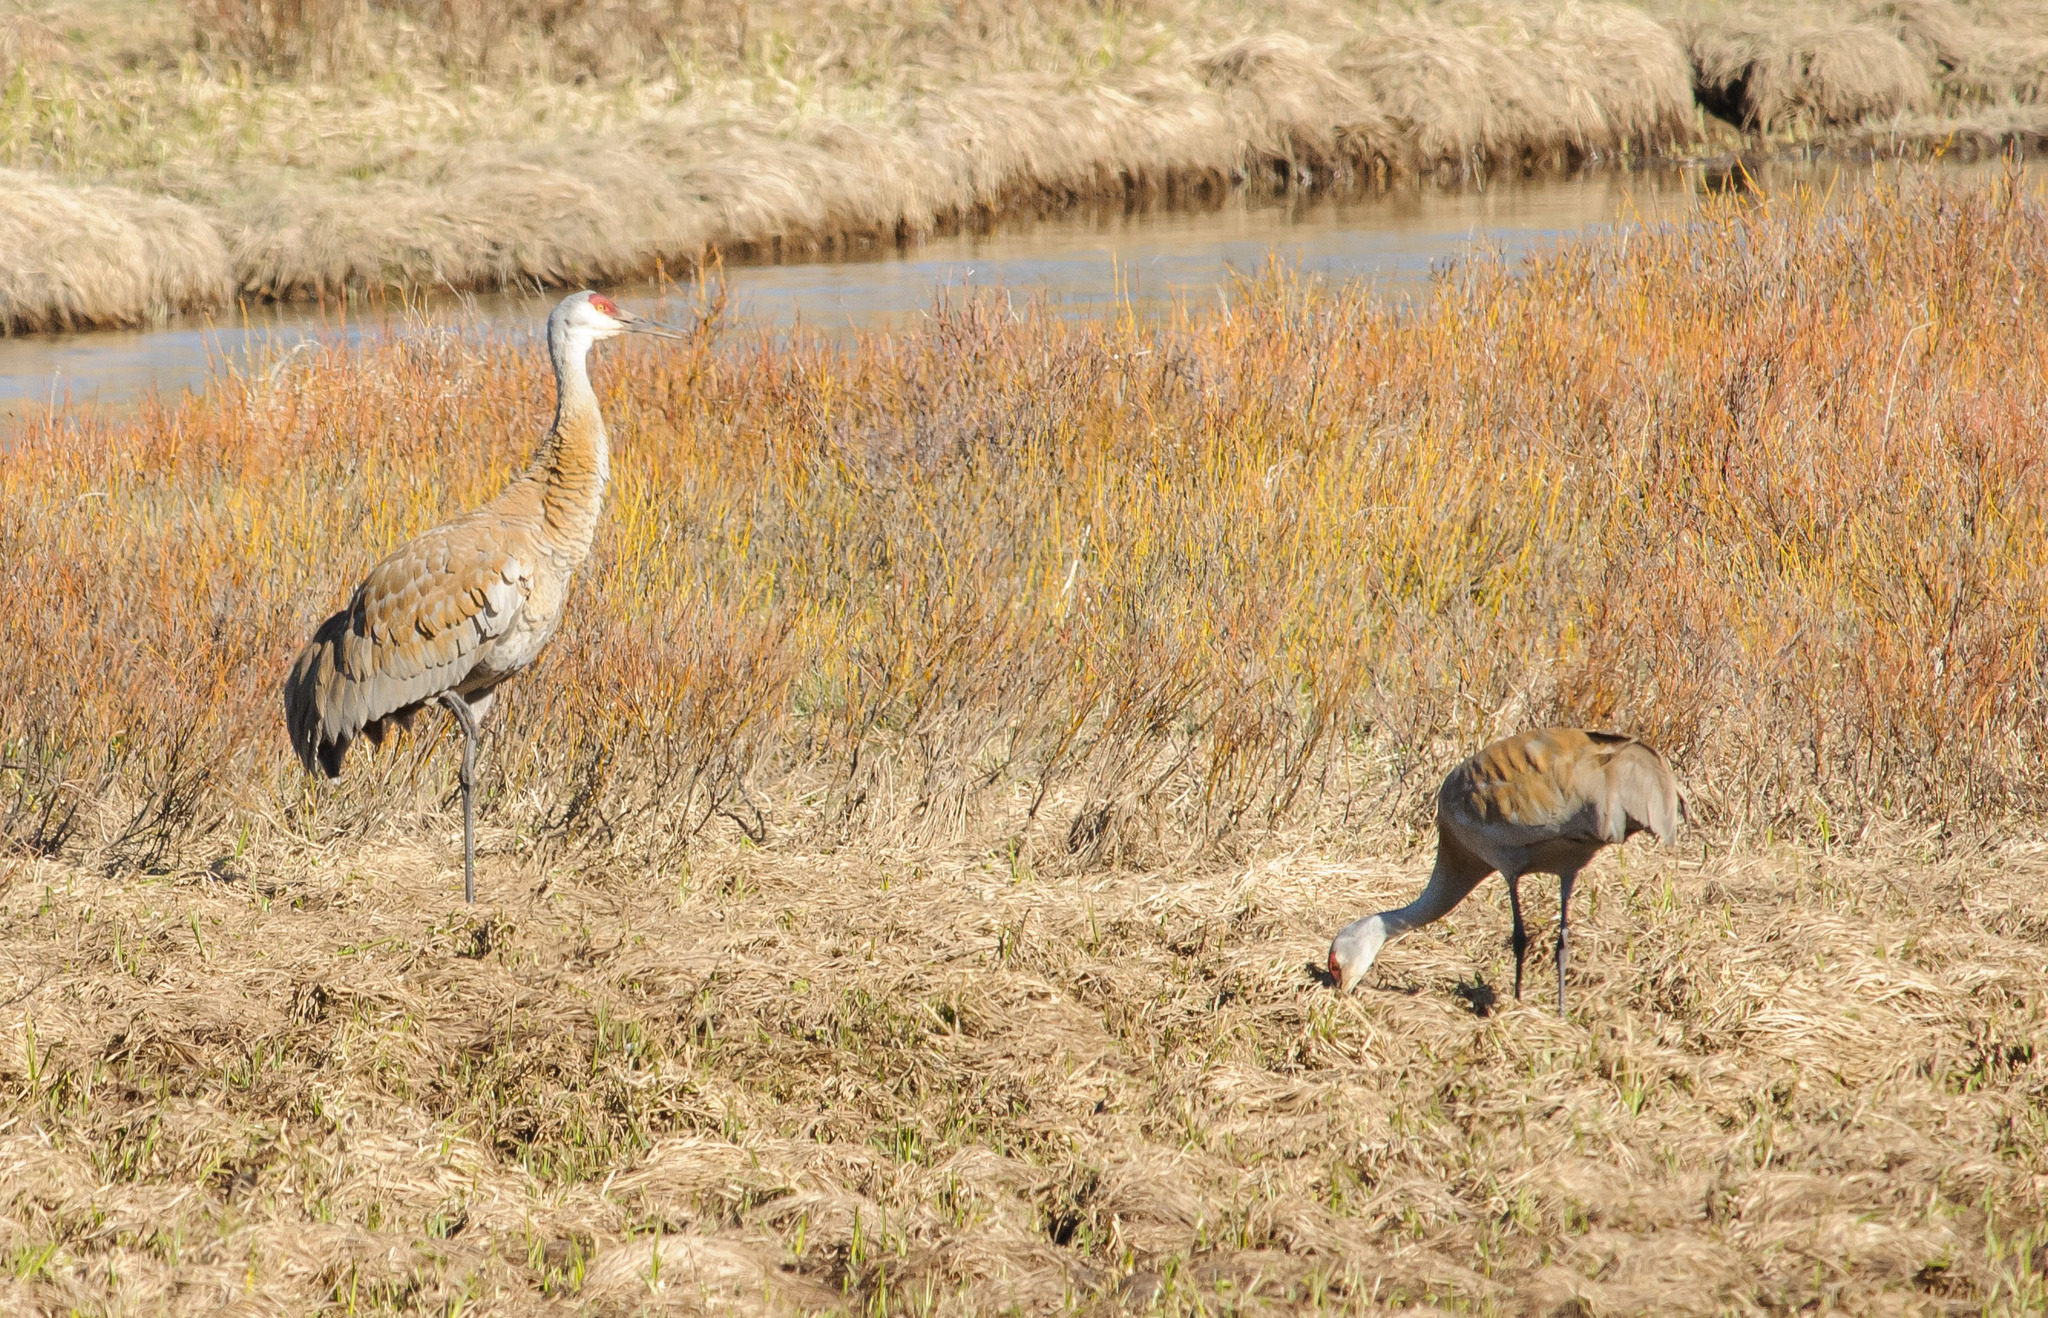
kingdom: Animalia
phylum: Chordata
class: Aves
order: Gruiformes
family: Gruidae
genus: Grus
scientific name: Grus canadensis
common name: Sandhill crane
